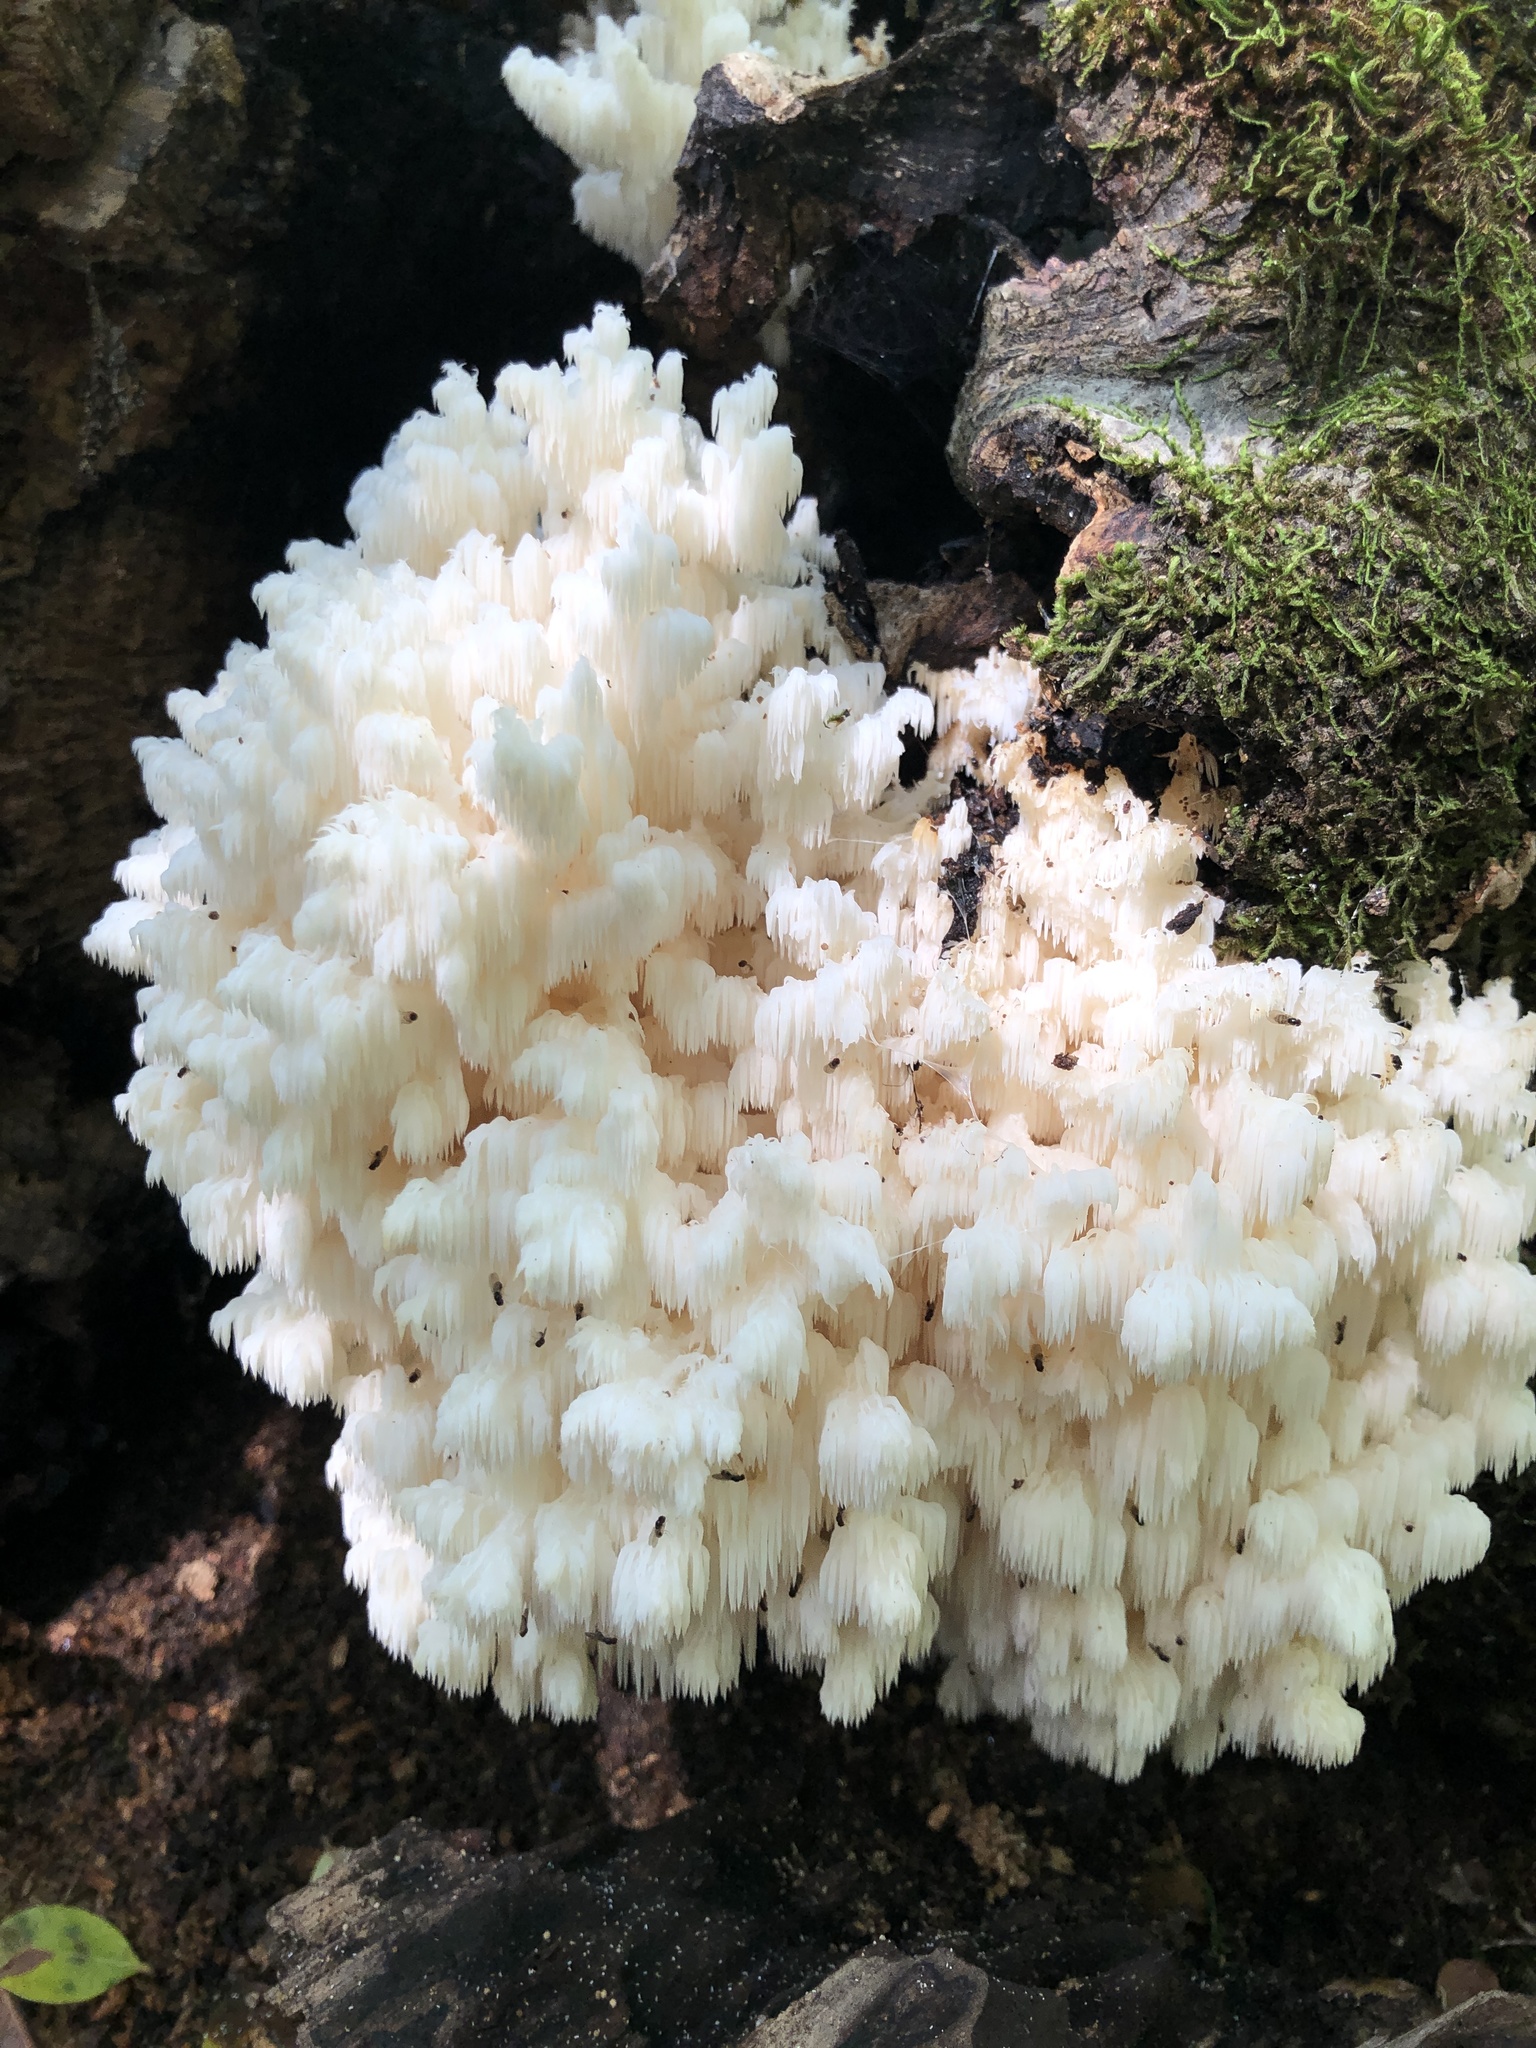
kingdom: Fungi
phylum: Basidiomycota
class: Agaricomycetes
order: Russulales
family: Hericiaceae
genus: Hericium
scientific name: Hericium coralloides
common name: Coral tooth
